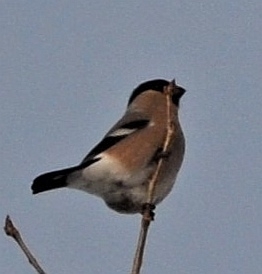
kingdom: Animalia
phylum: Chordata
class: Aves
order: Passeriformes
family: Fringillidae
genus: Pyrrhula
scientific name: Pyrrhula pyrrhula
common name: Eurasian bullfinch
